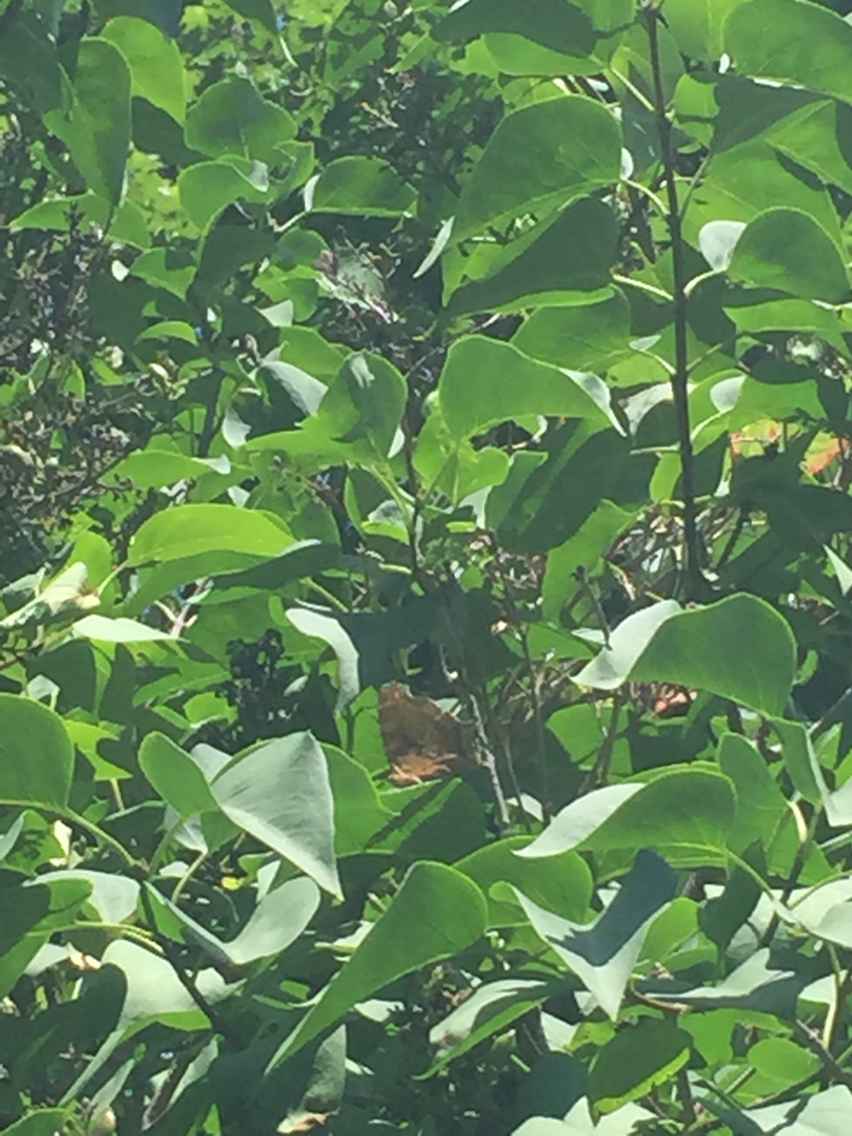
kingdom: Animalia
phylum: Arthropoda
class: Insecta
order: Lepidoptera
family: Nymphalidae
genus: Polygonia
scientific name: Polygonia comma
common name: Eastern comma
